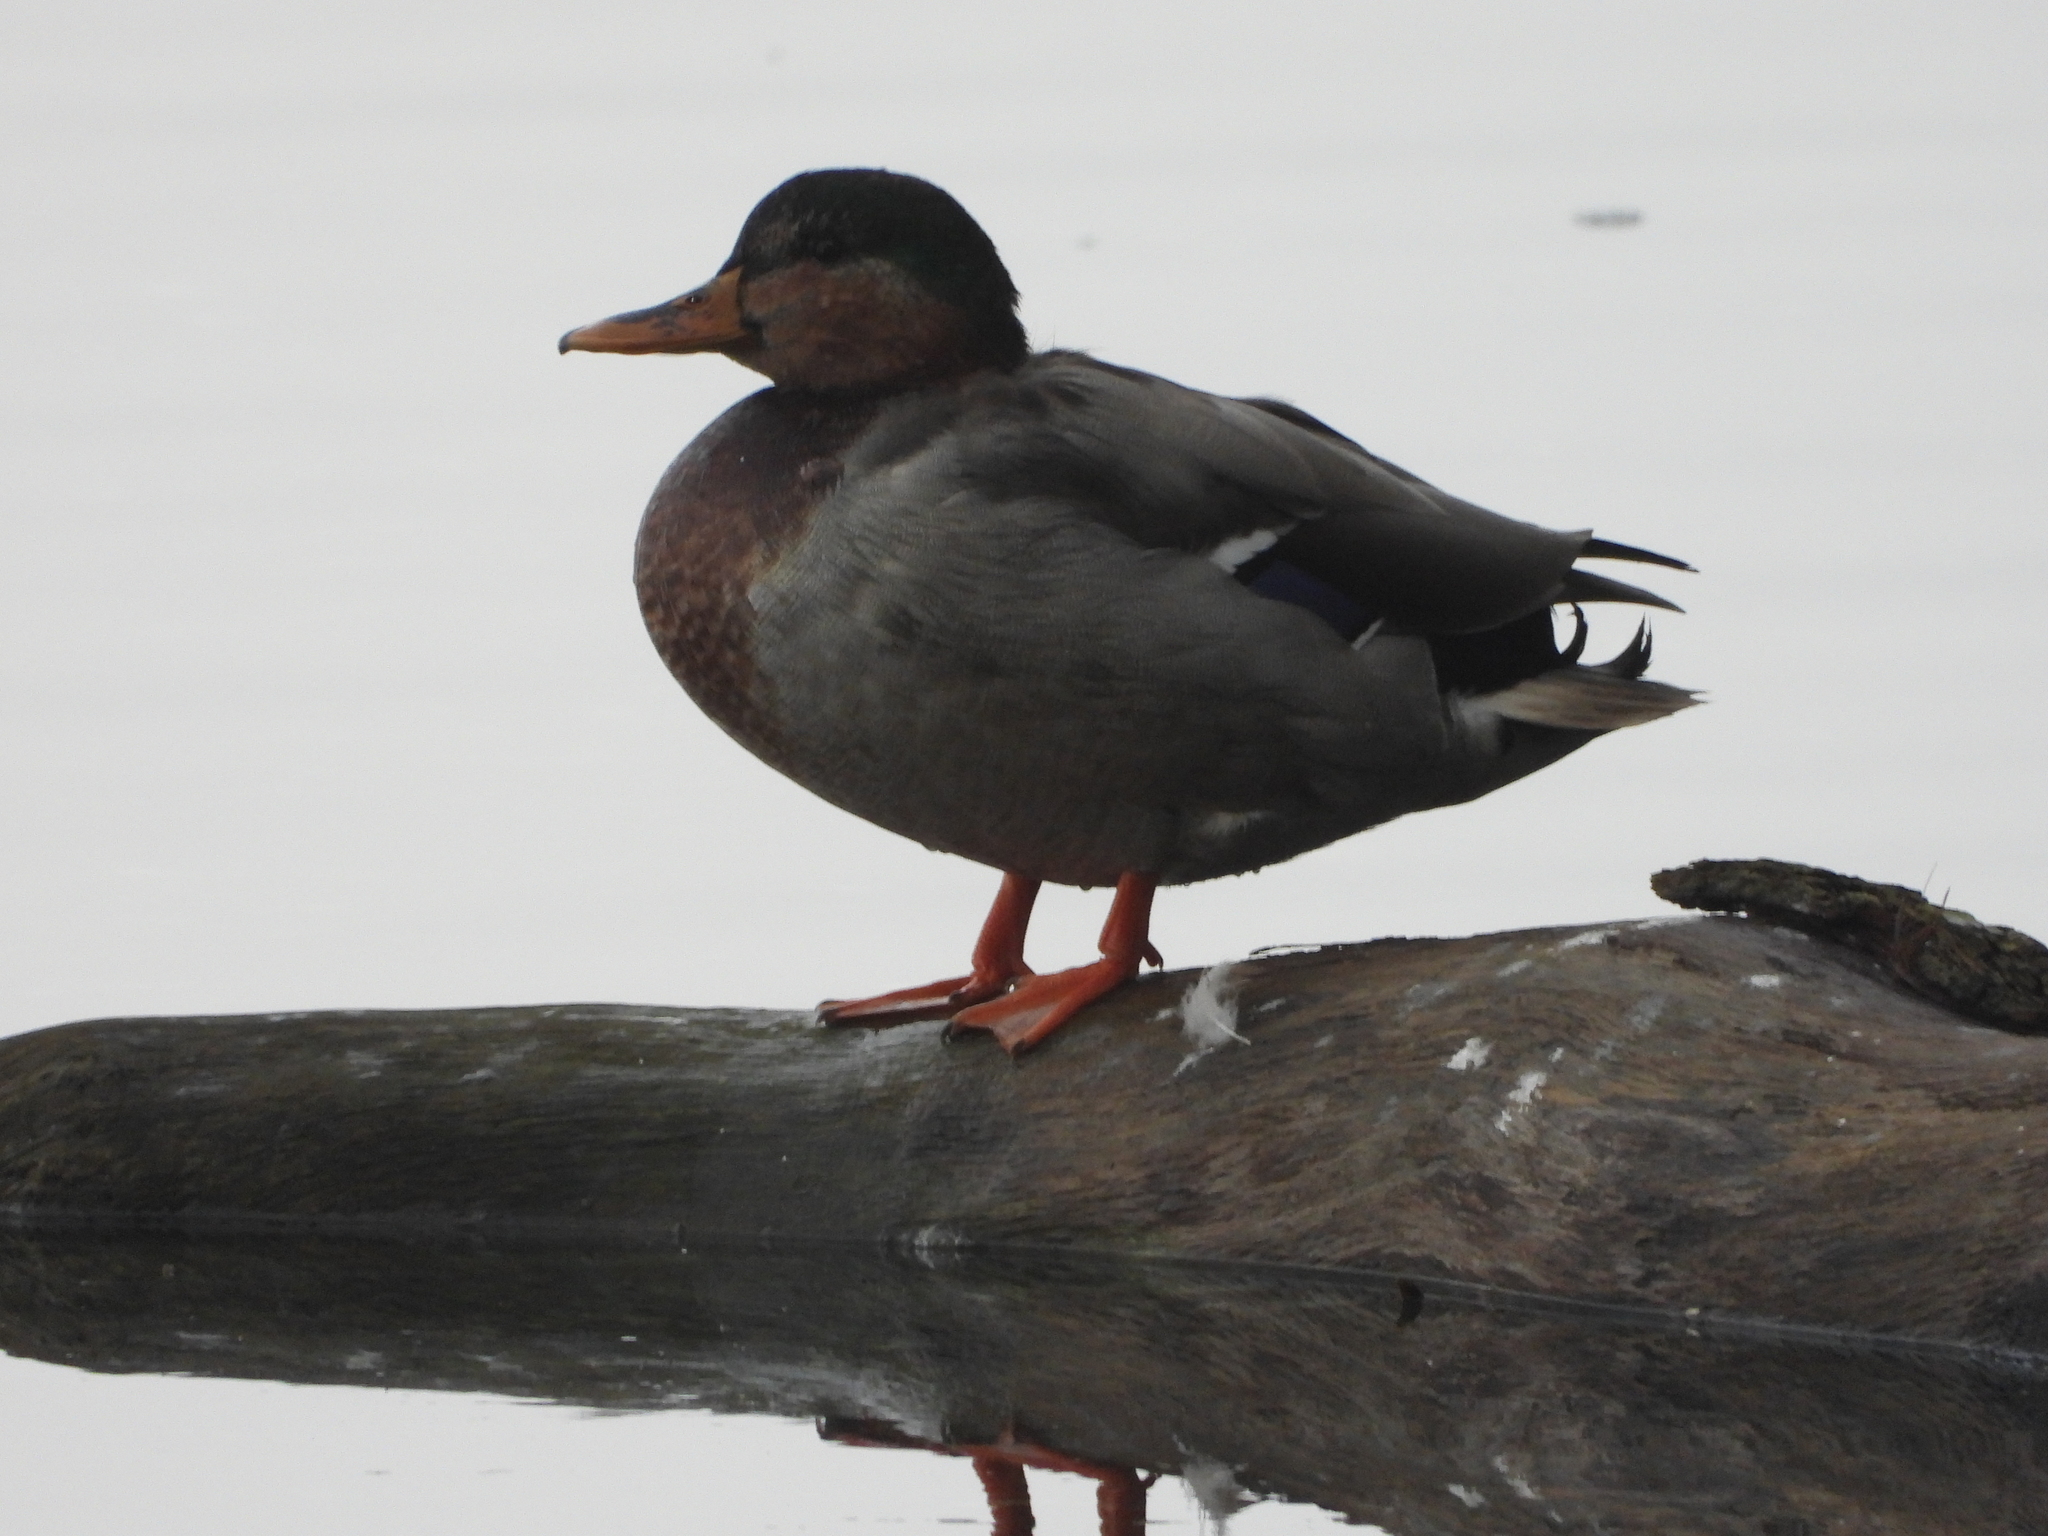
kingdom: Animalia
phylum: Chordata
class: Aves
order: Anseriformes
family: Anatidae
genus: Anas
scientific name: Anas platyrhynchos
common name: Mallard
